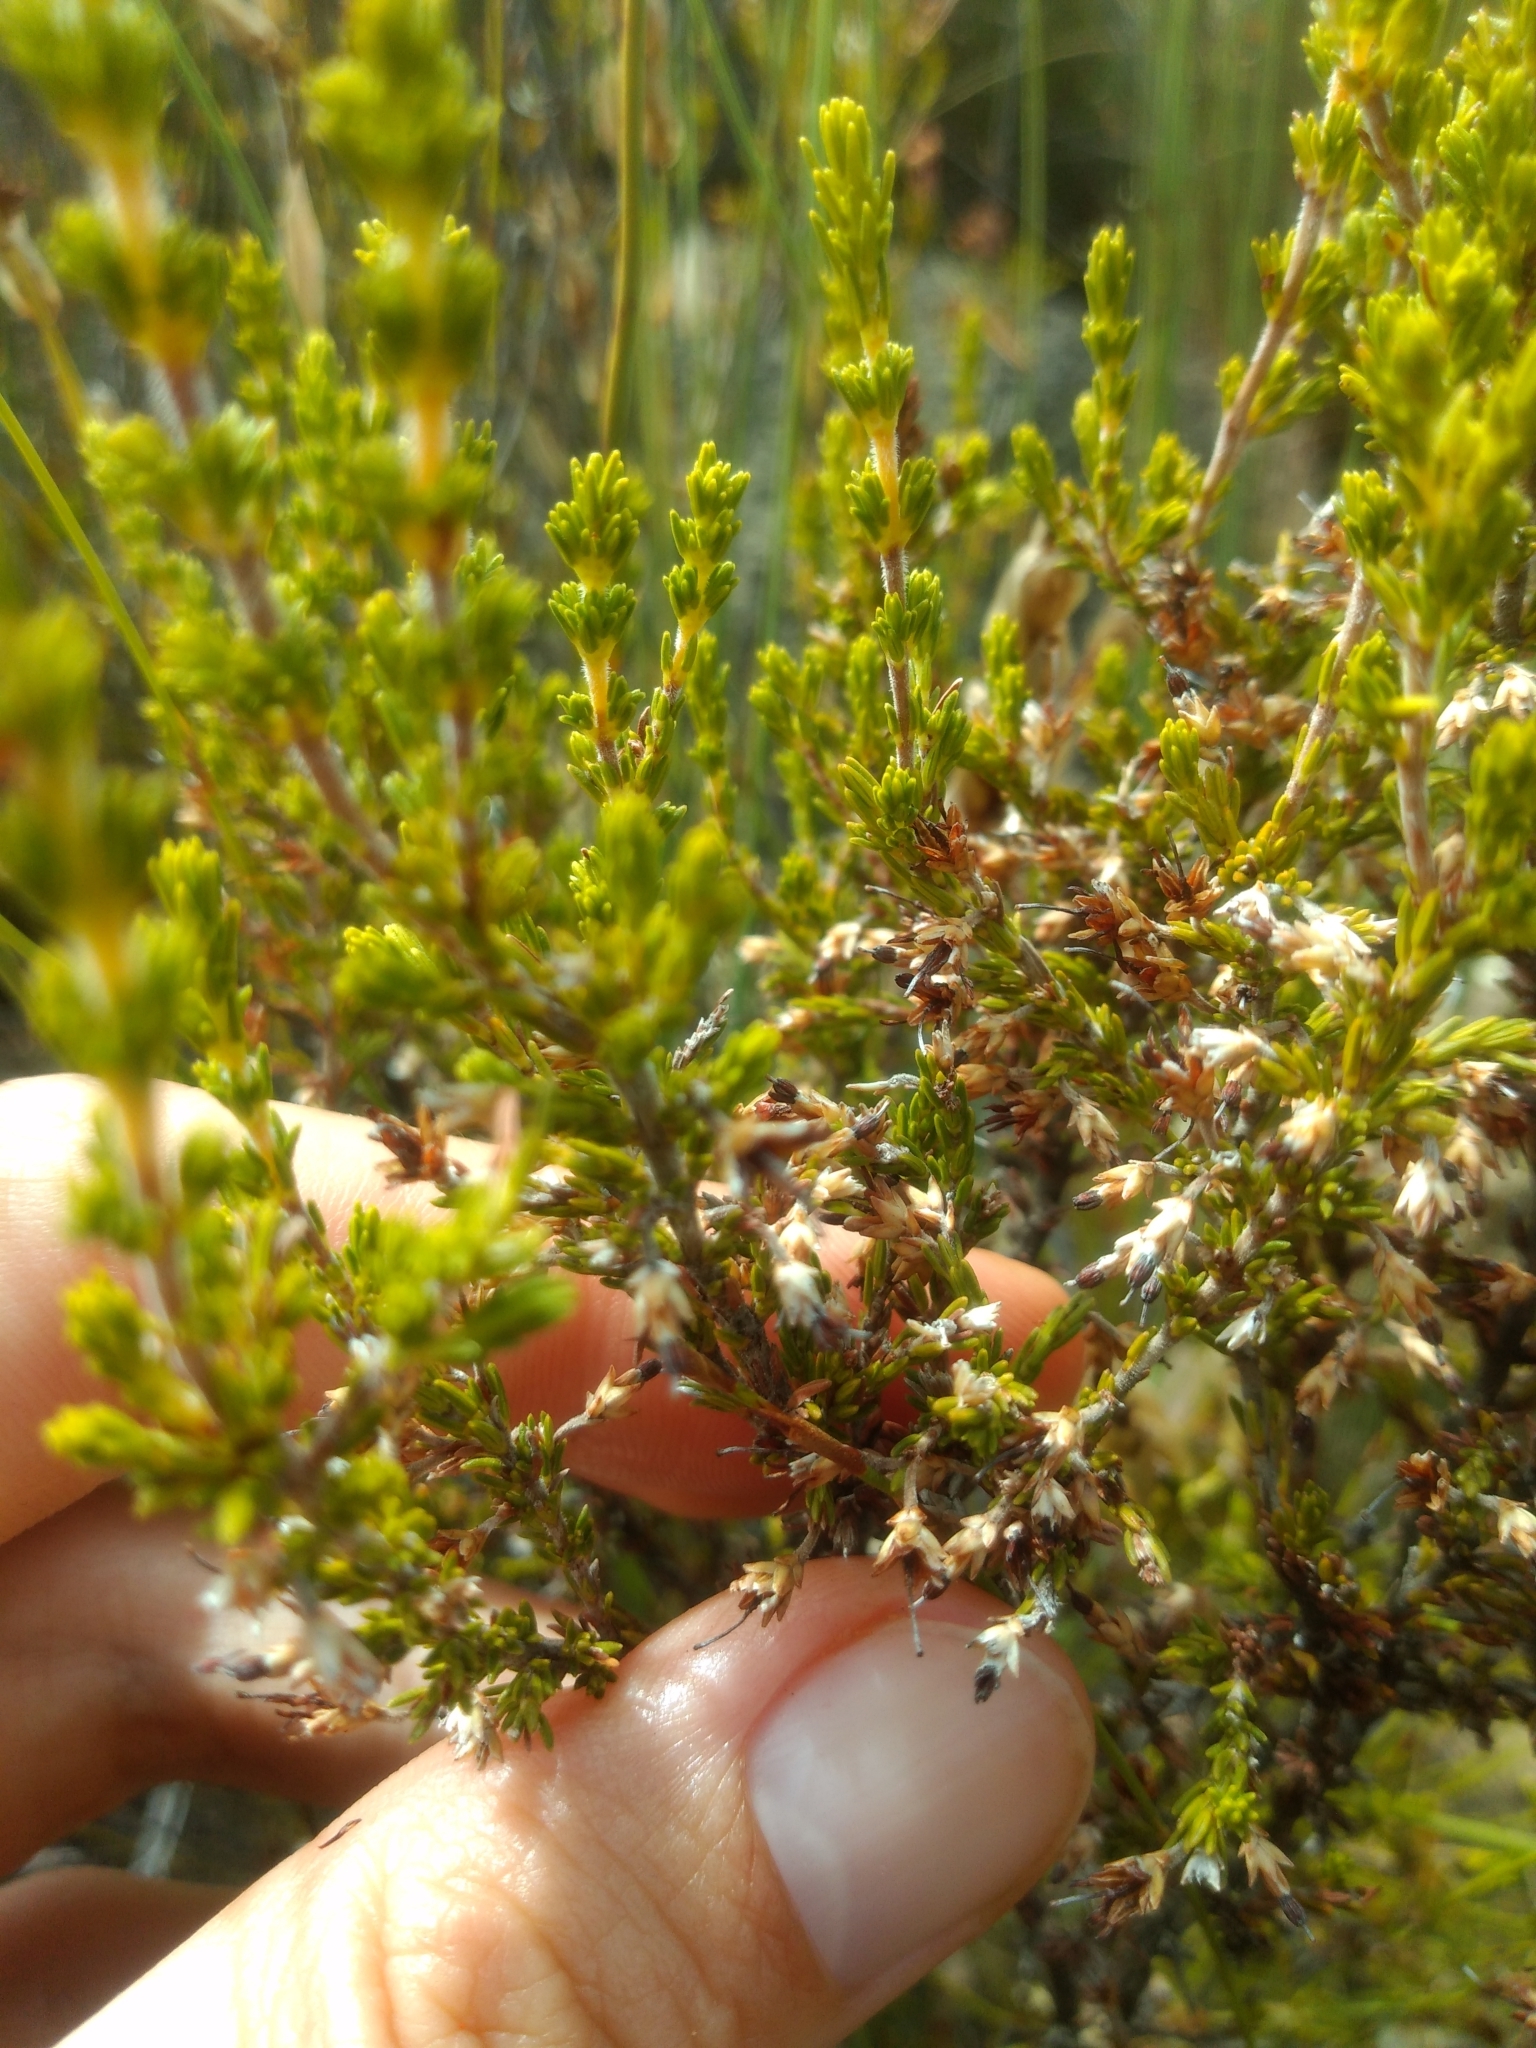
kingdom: Plantae
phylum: Tracheophyta
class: Magnoliopsida
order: Ericales
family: Ericaceae
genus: Erica
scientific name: Erica imbricata
